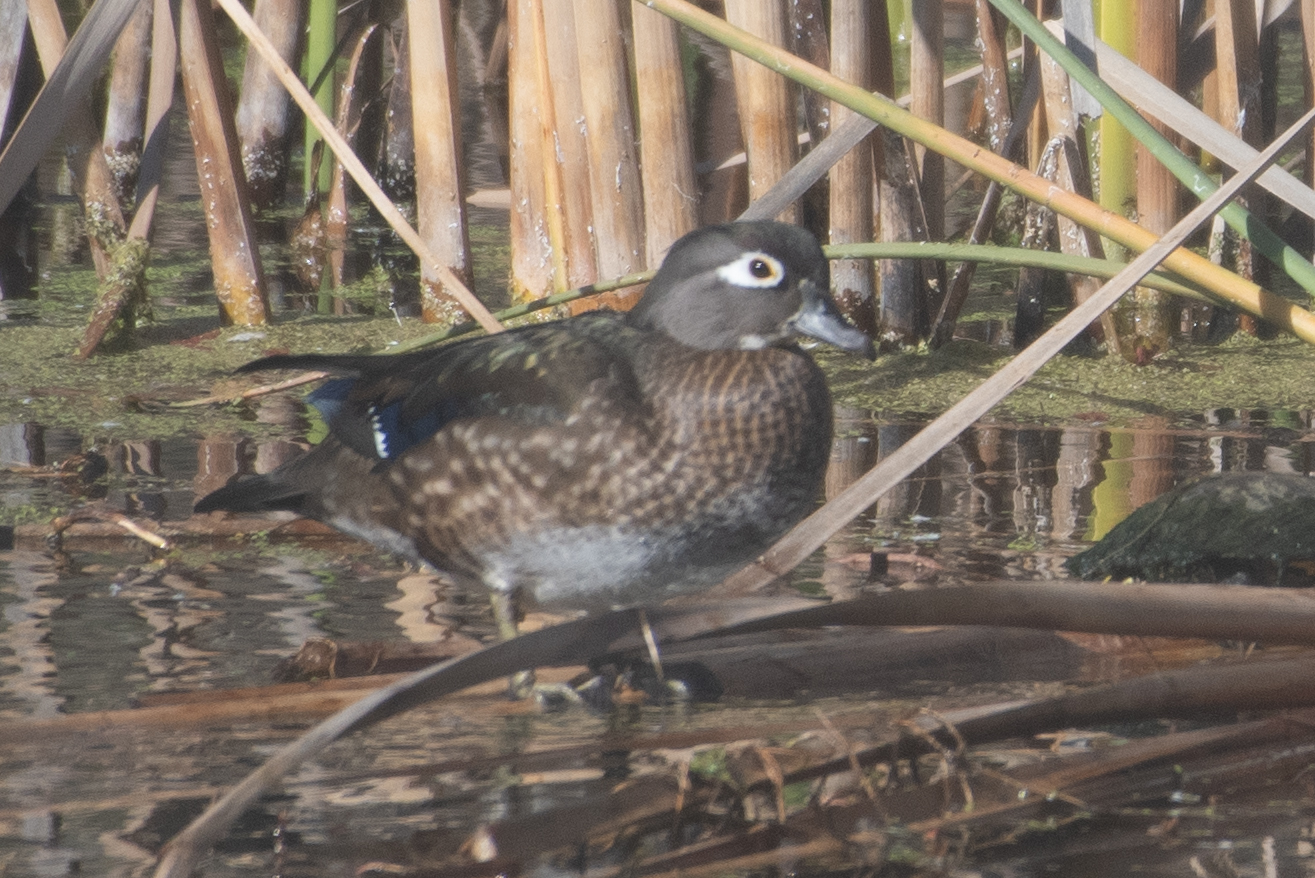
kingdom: Animalia
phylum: Chordata
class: Aves
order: Anseriformes
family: Anatidae
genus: Aix
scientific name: Aix sponsa
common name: Wood duck
